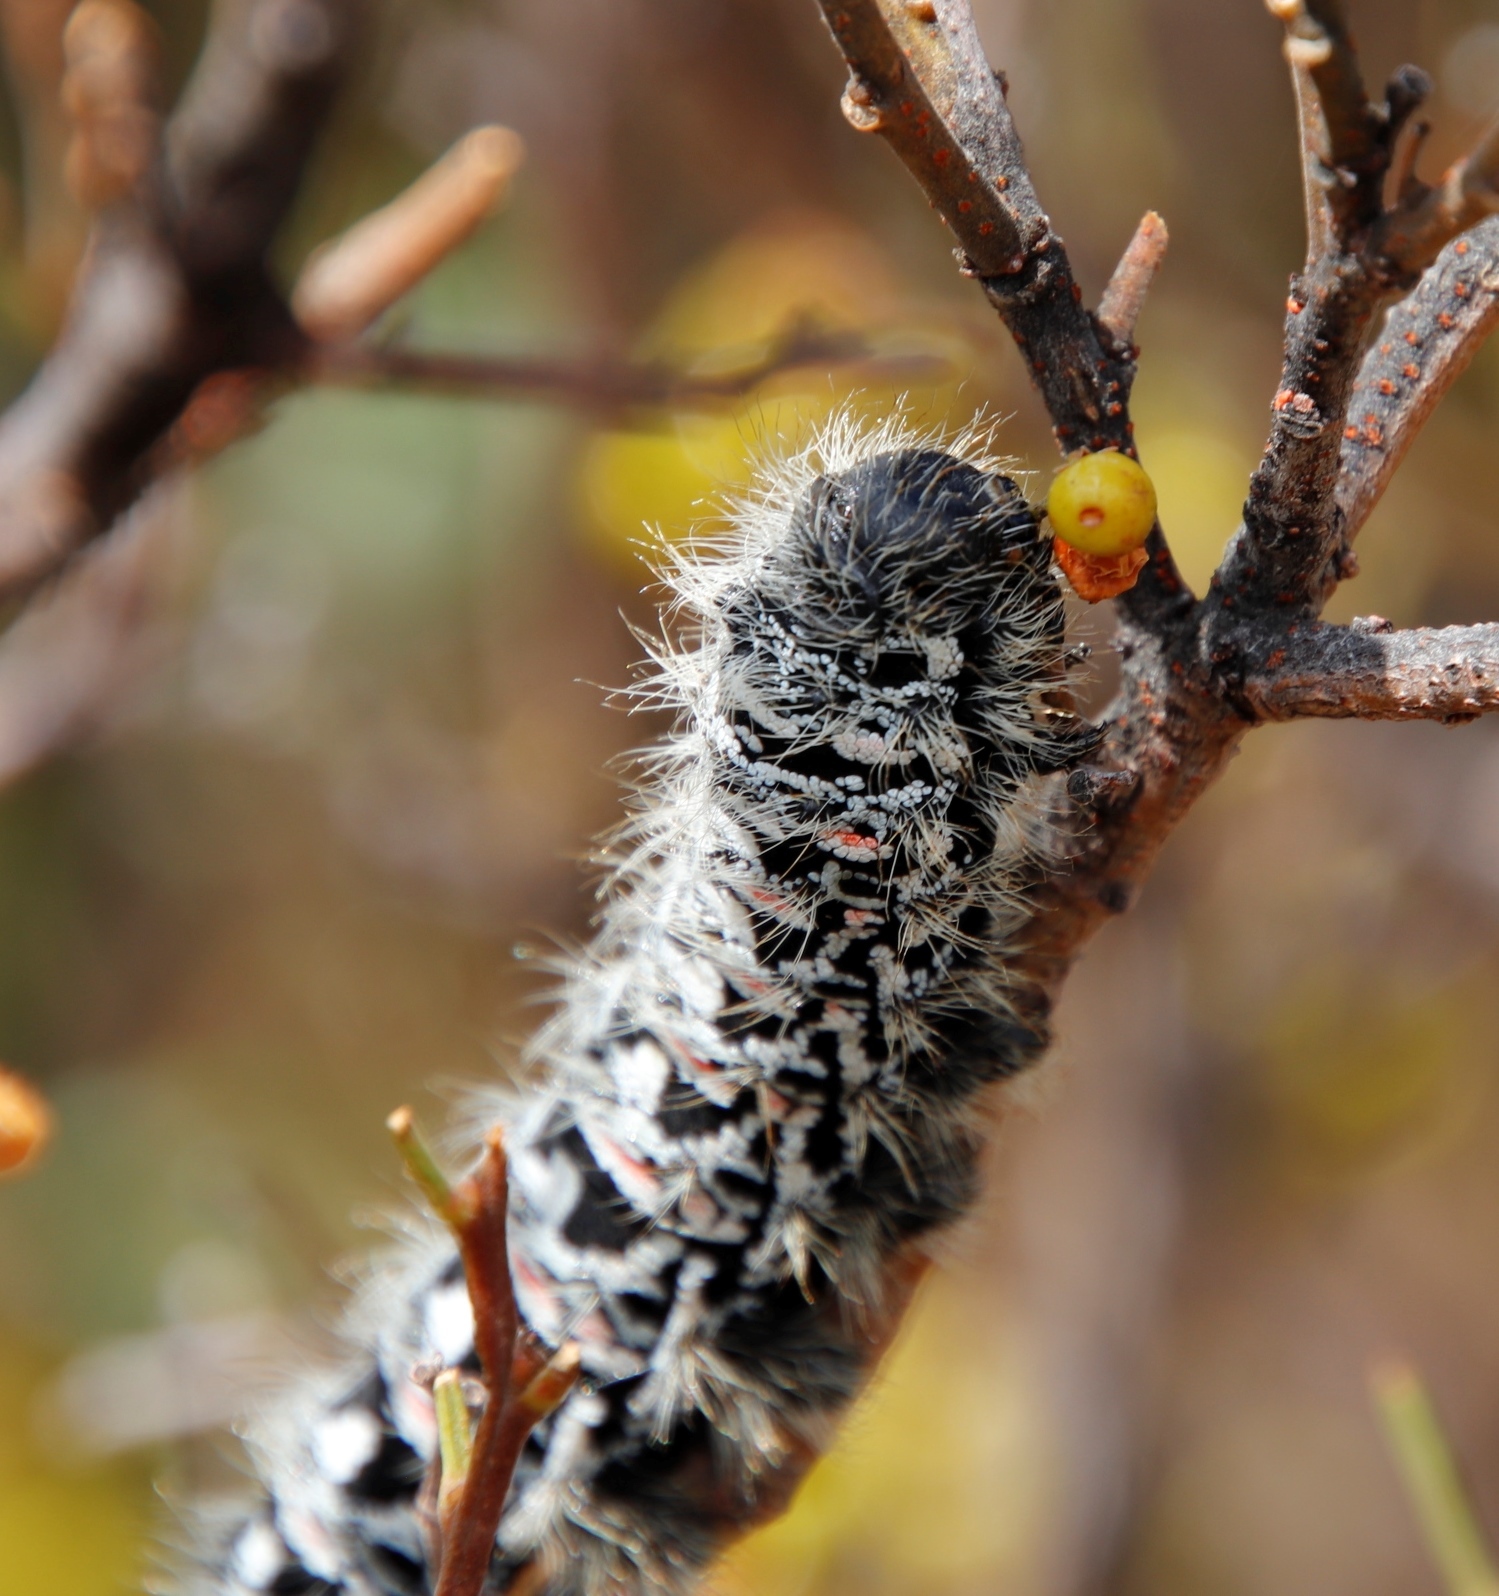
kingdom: Animalia
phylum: Arthropoda
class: Insecta
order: Lepidoptera
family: Saturniidae
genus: Gonimbrasia
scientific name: Gonimbrasia tyrrhea
